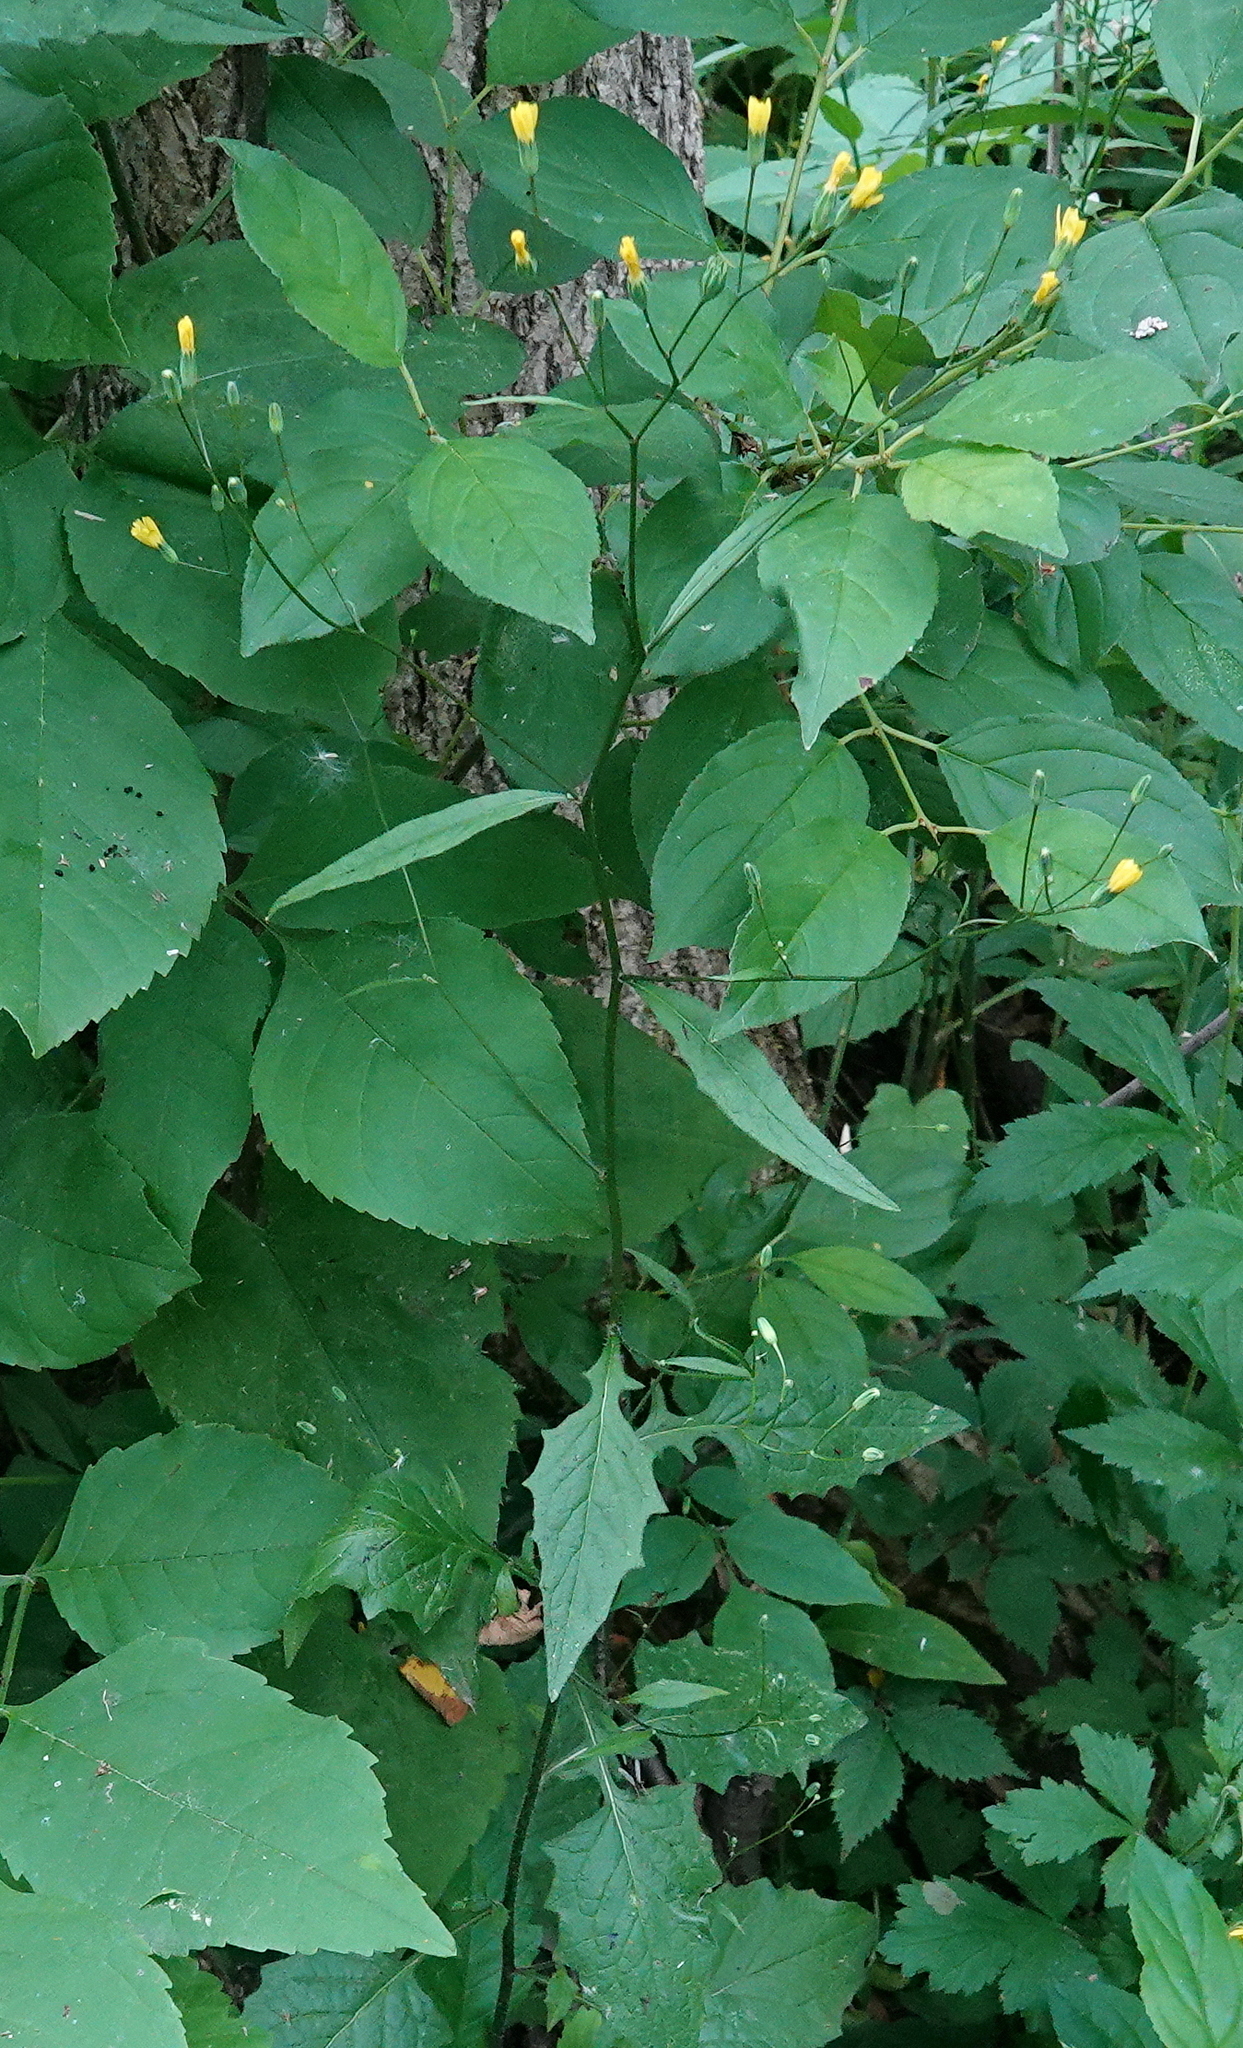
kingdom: Plantae
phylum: Tracheophyta
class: Magnoliopsida
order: Asterales
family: Asteraceae
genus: Lapsana
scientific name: Lapsana communis
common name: Nipplewort
